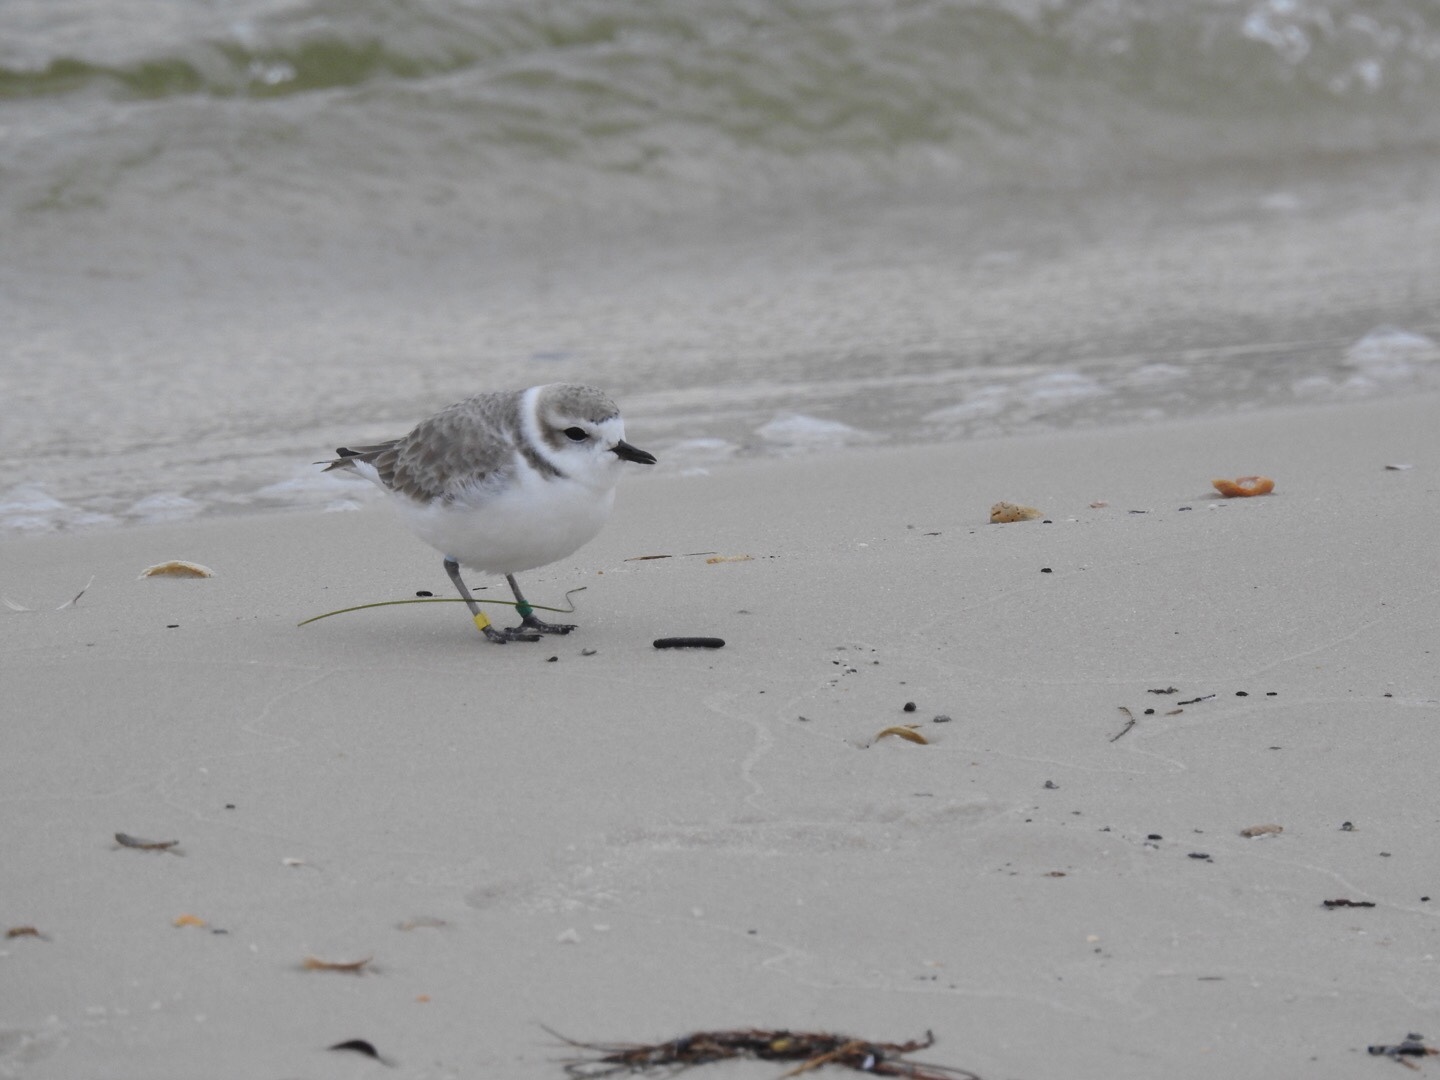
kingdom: Animalia
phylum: Chordata
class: Aves
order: Charadriiformes
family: Charadriidae
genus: Anarhynchus
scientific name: Anarhynchus
